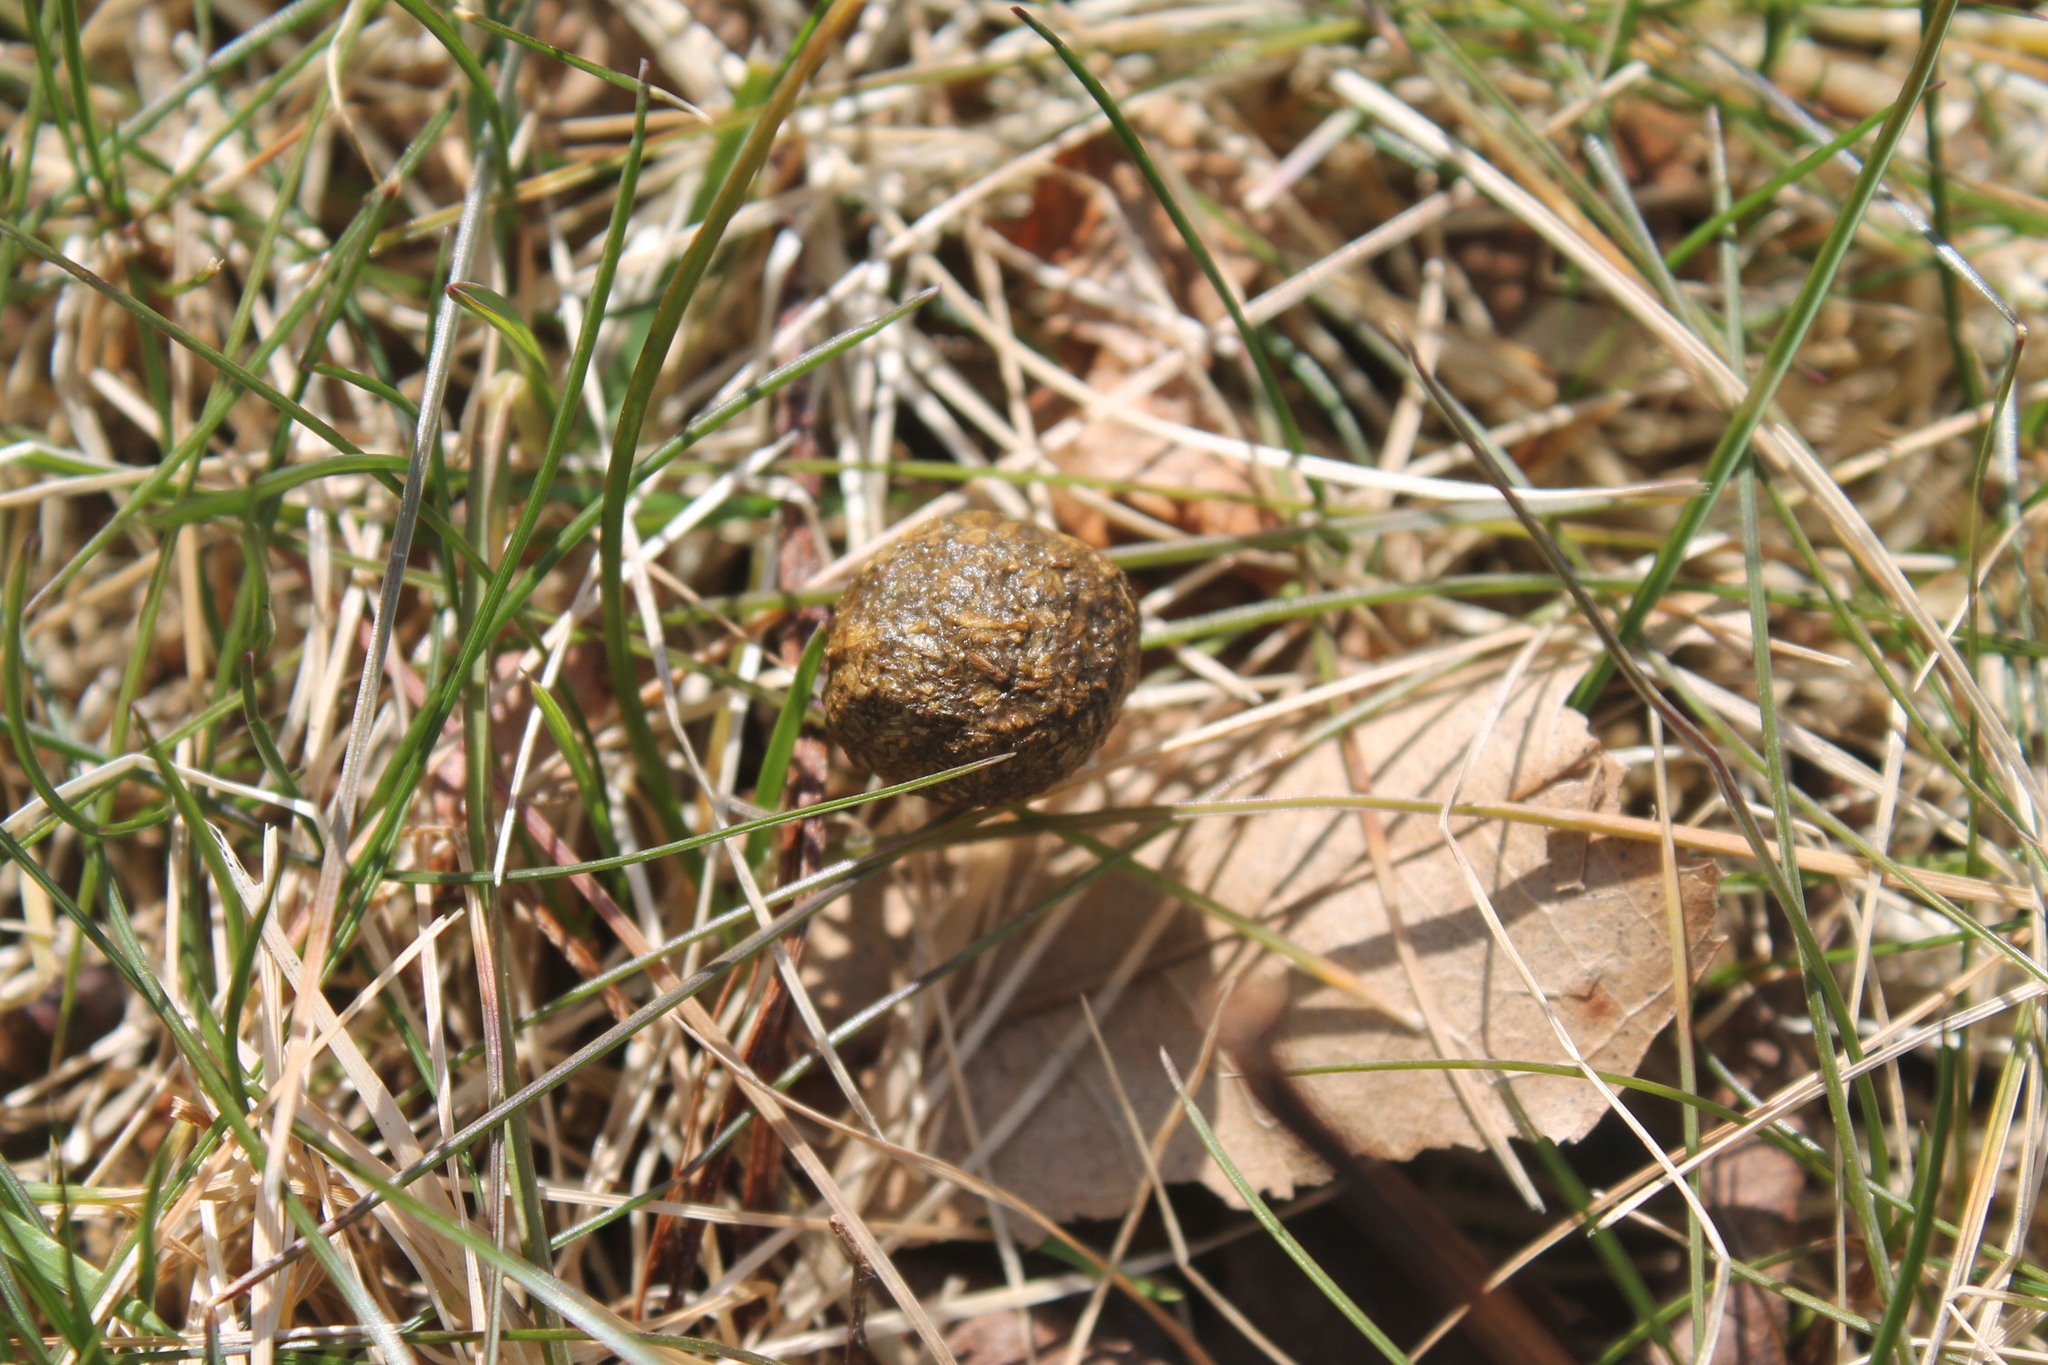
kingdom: Animalia
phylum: Chordata
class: Mammalia
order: Lagomorpha
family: Leporidae
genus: Sylvilagus
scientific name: Sylvilagus floridanus
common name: Eastern cottontail
